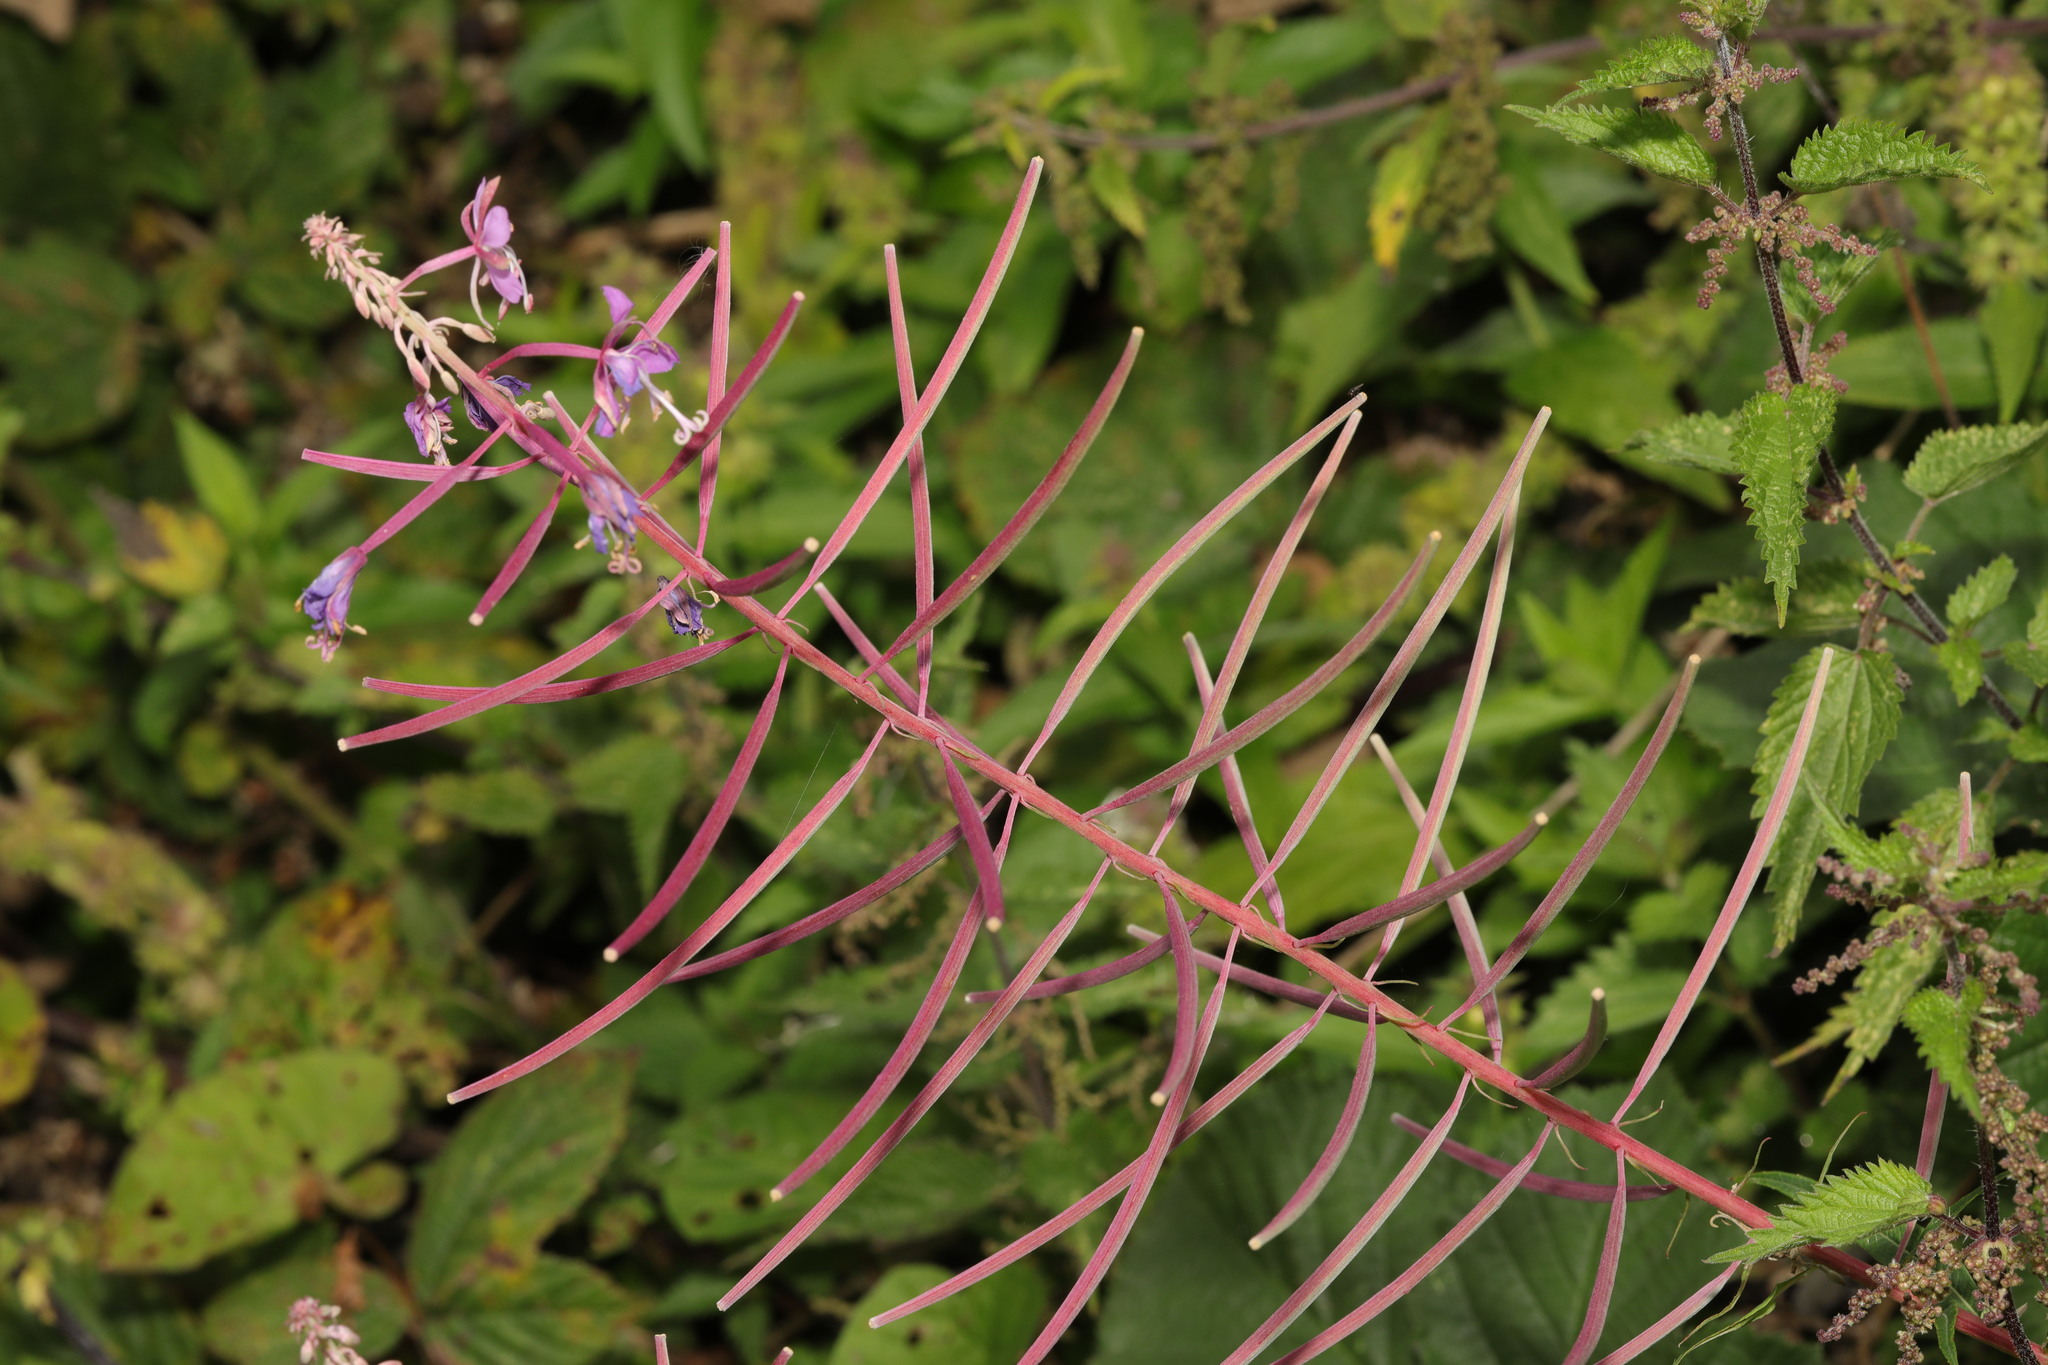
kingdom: Plantae
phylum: Tracheophyta
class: Magnoliopsida
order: Myrtales
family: Onagraceae
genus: Chamaenerion
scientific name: Chamaenerion angustifolium
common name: Fireweed
